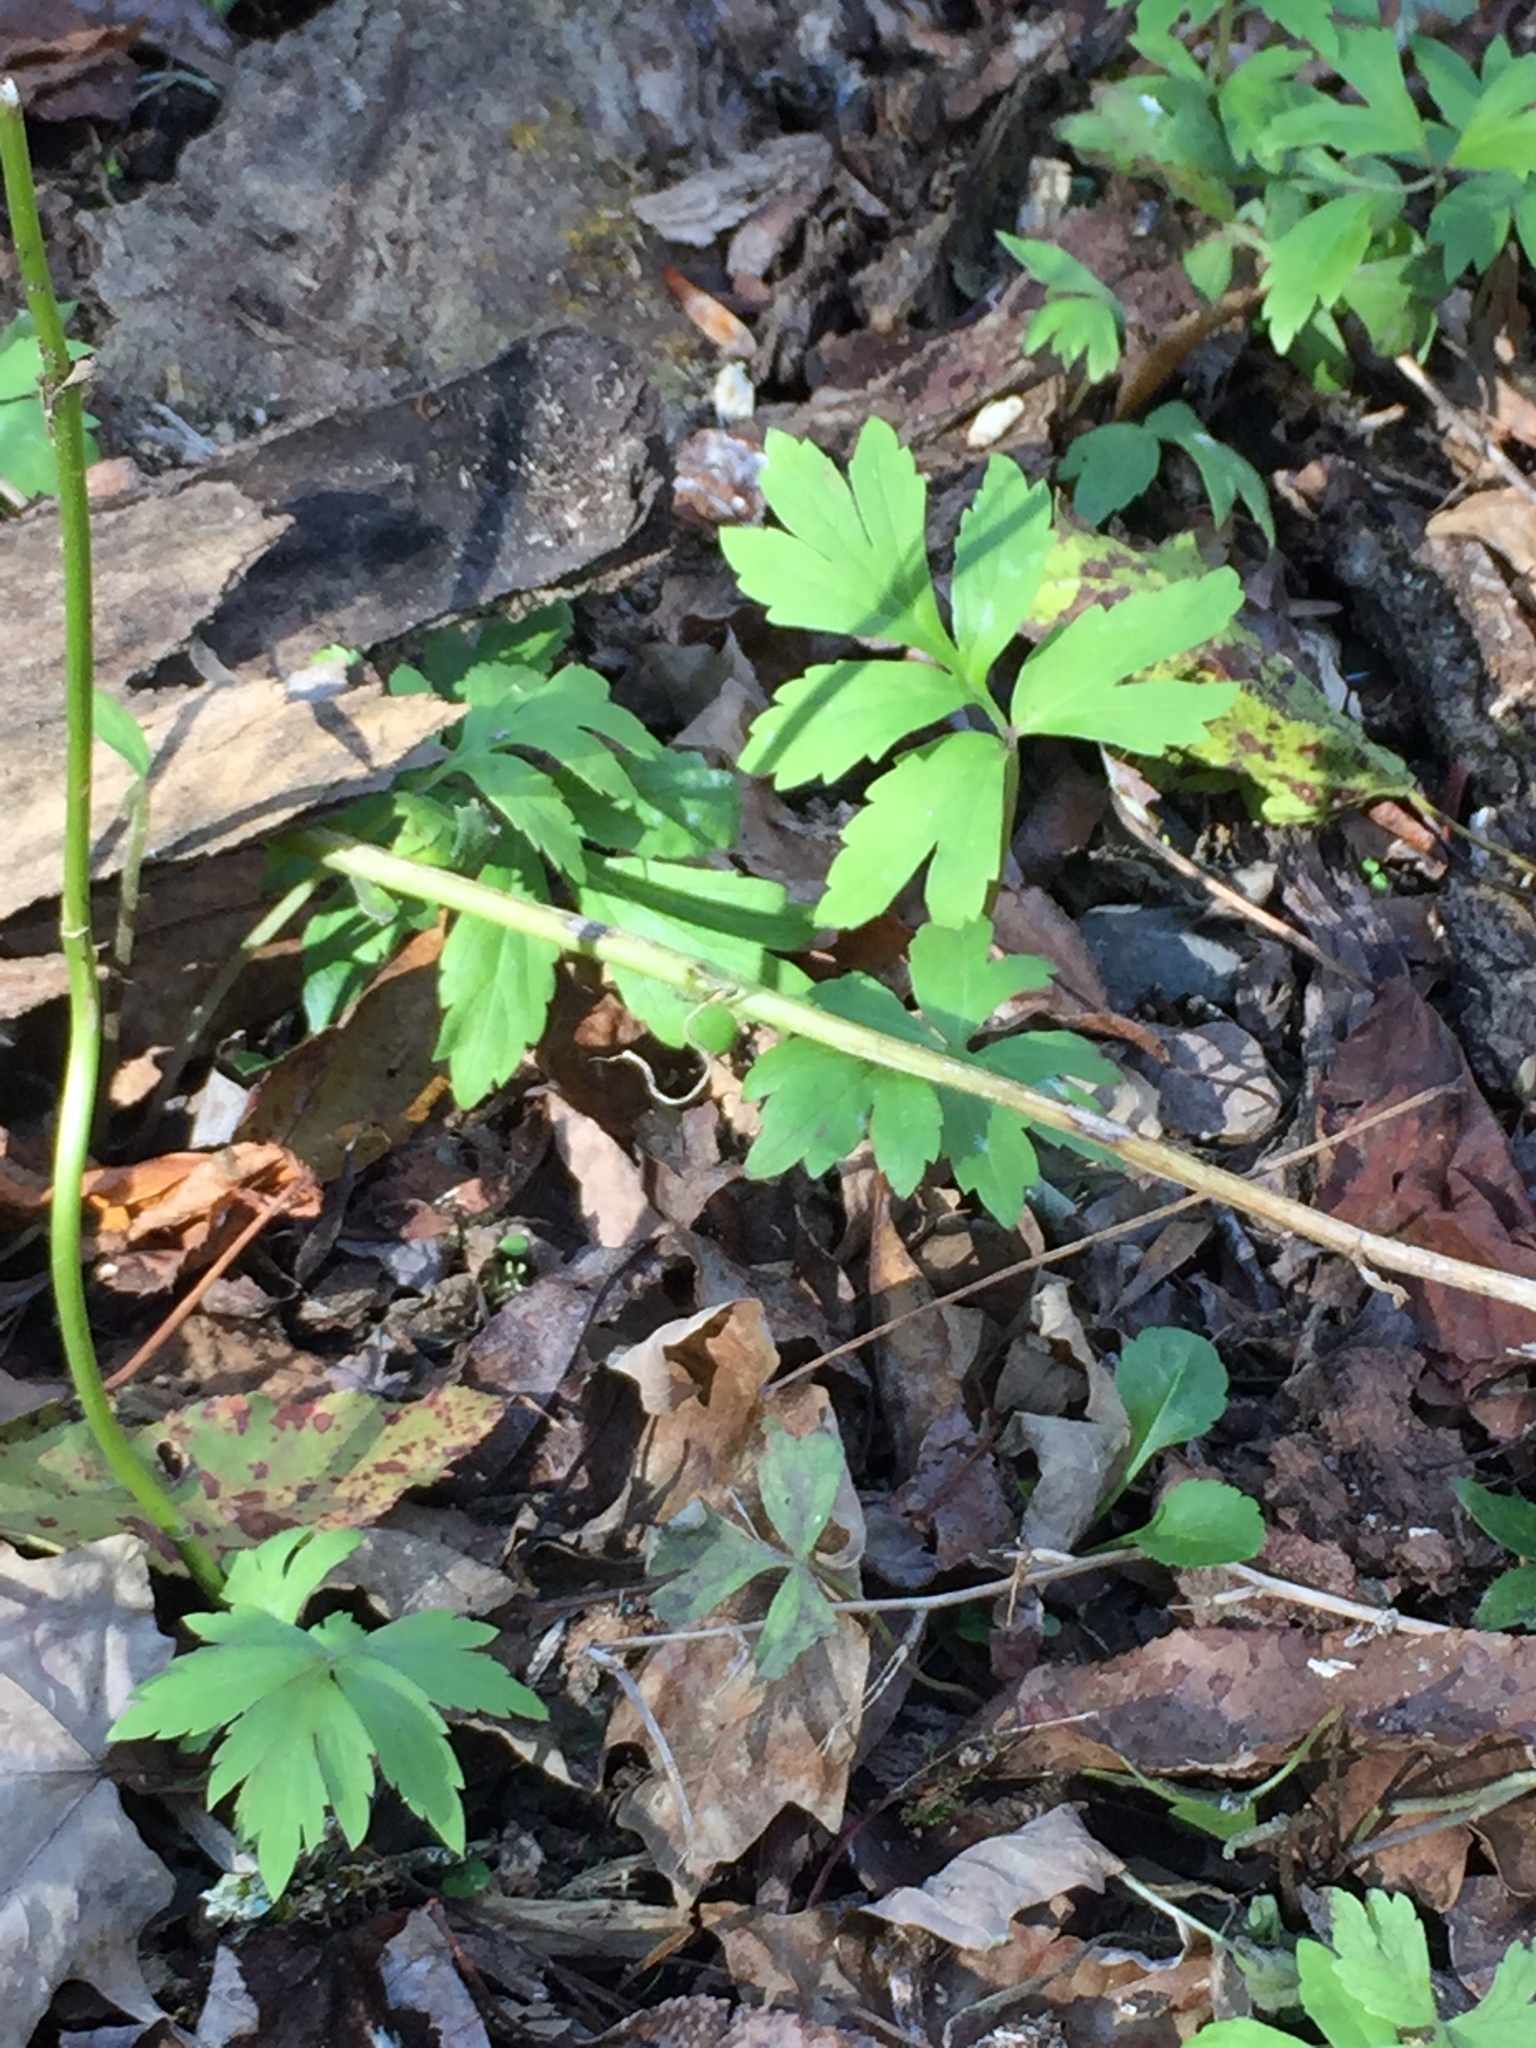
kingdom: Plantae
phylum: Tracheophyta
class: Magnoliopsida
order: Boraginales
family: Hydrophyllaceae
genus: Hydrophyllum
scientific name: Hydrophyllum virginianum
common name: Virginia waterleaf
